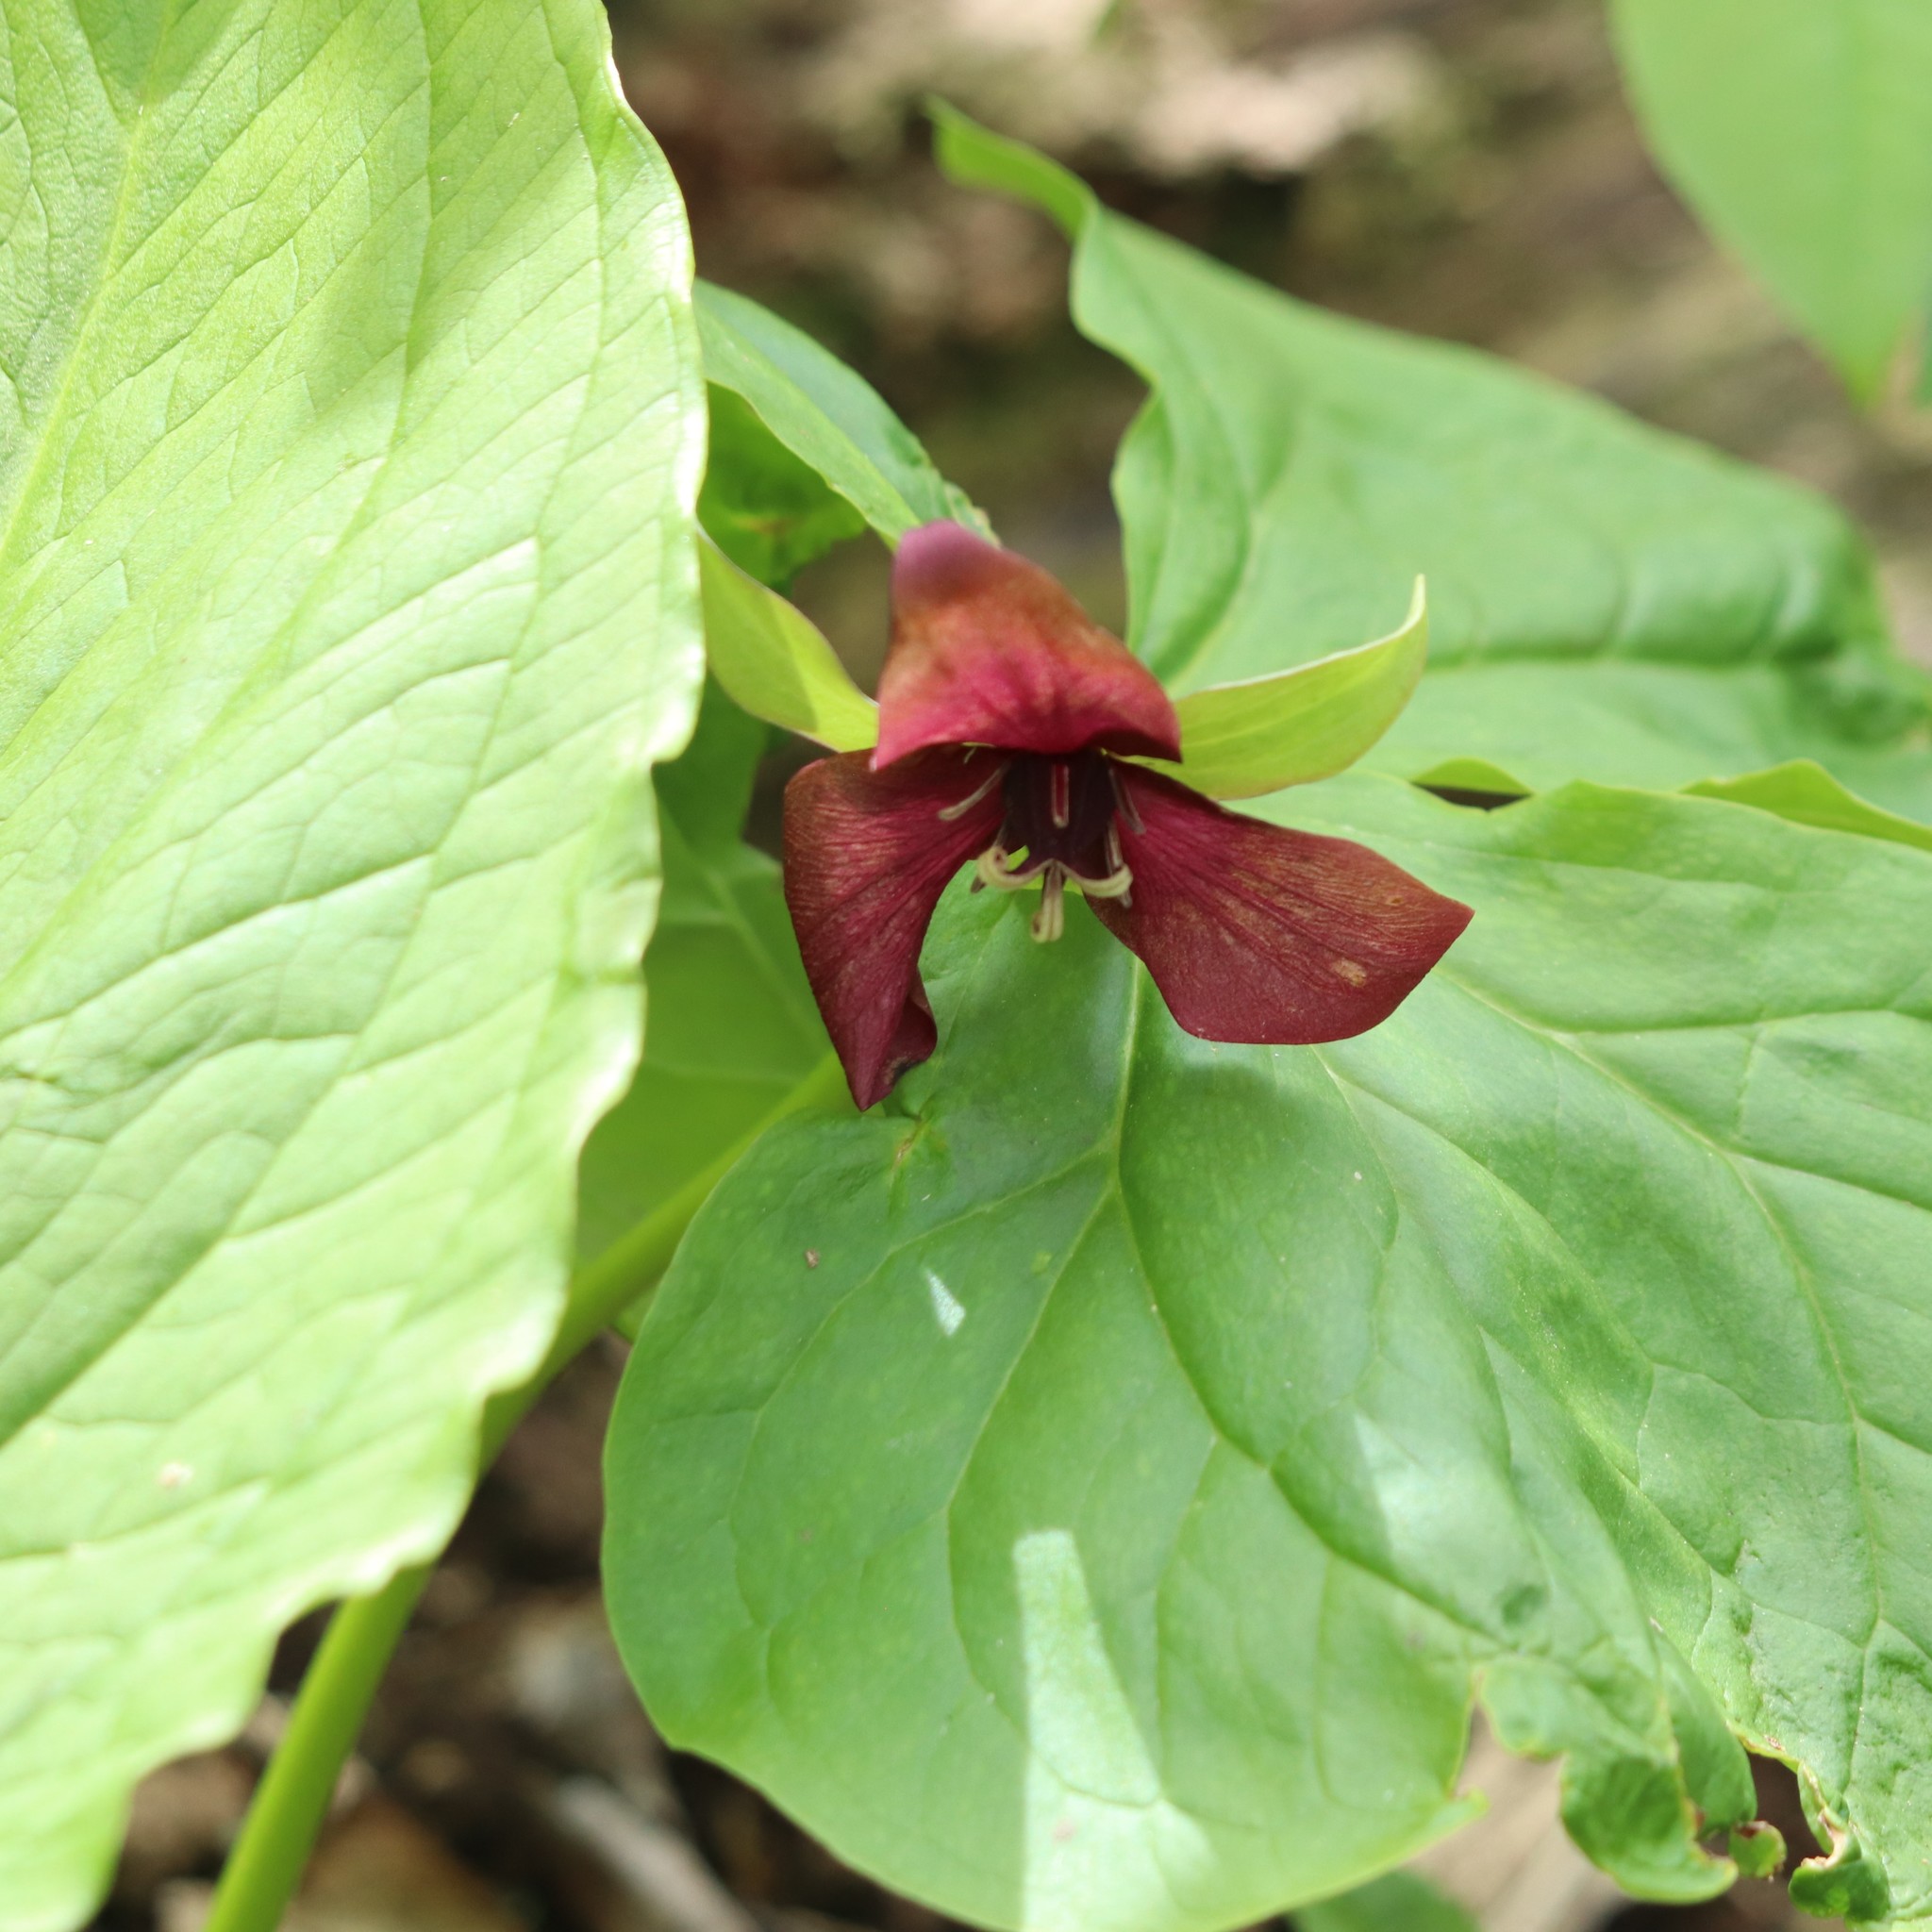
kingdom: Plantae
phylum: Tracheophyta
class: Liliopsida
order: Liliales
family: Melanthiaceae
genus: Trillium
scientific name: Trillium erectum
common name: Purple trillium
